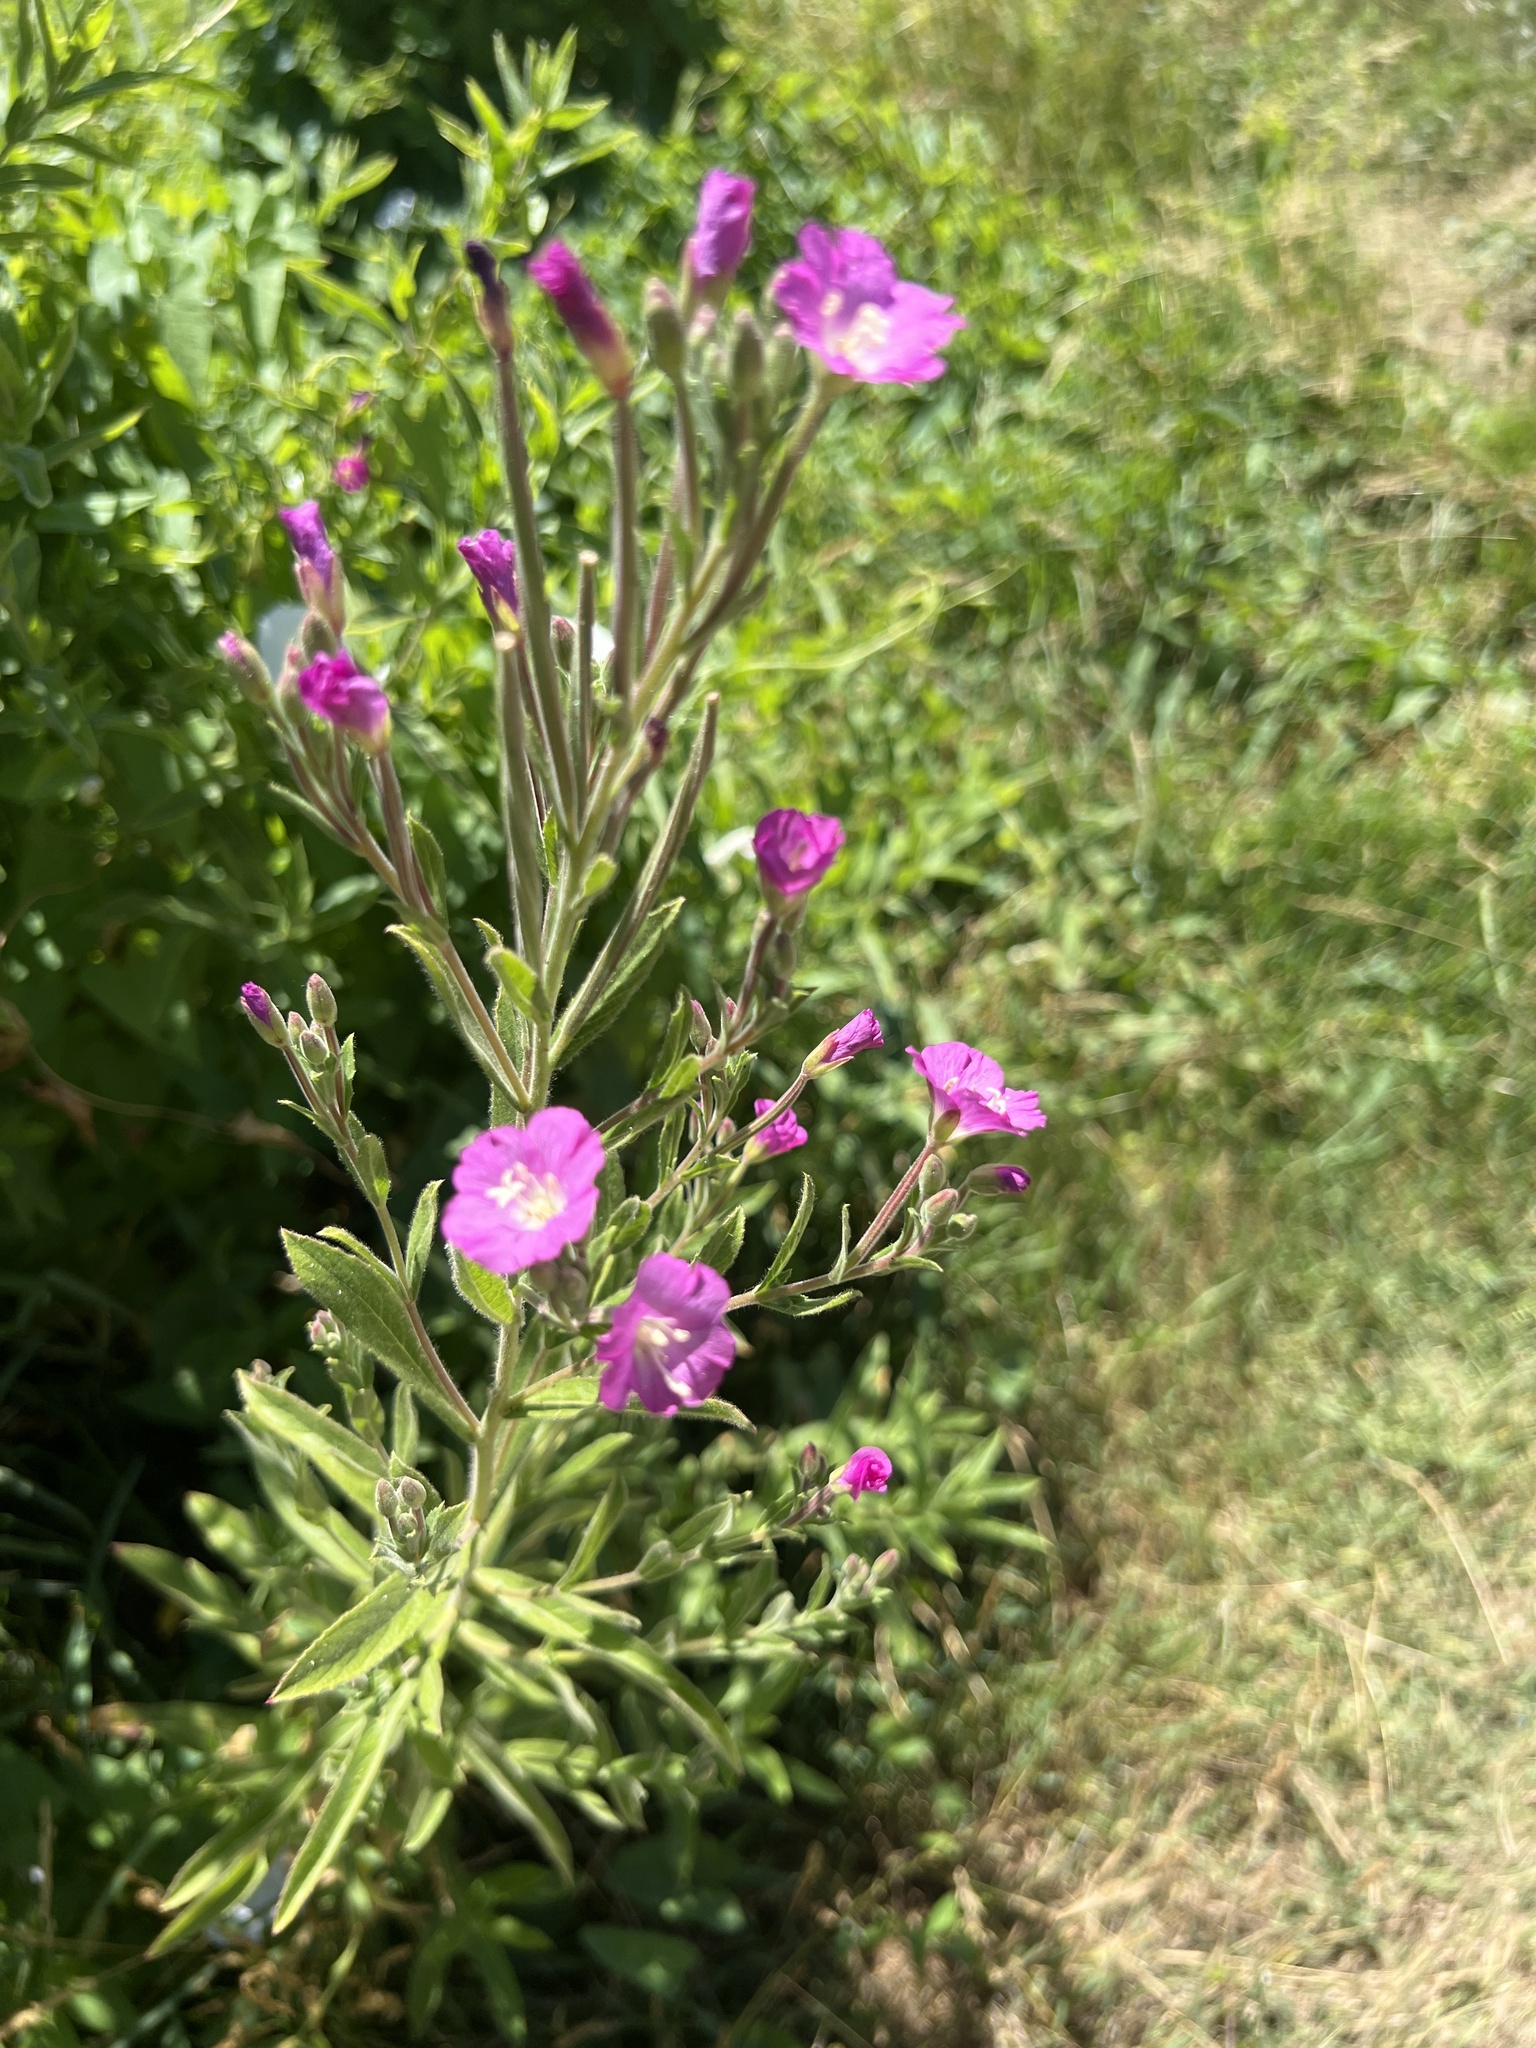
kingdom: Plantae
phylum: Tracheophyta
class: Magnoliopsida
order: Myrtales
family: Onagraceae
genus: Epilobium
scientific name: Epilobium hirsutum
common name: Great willowherb
